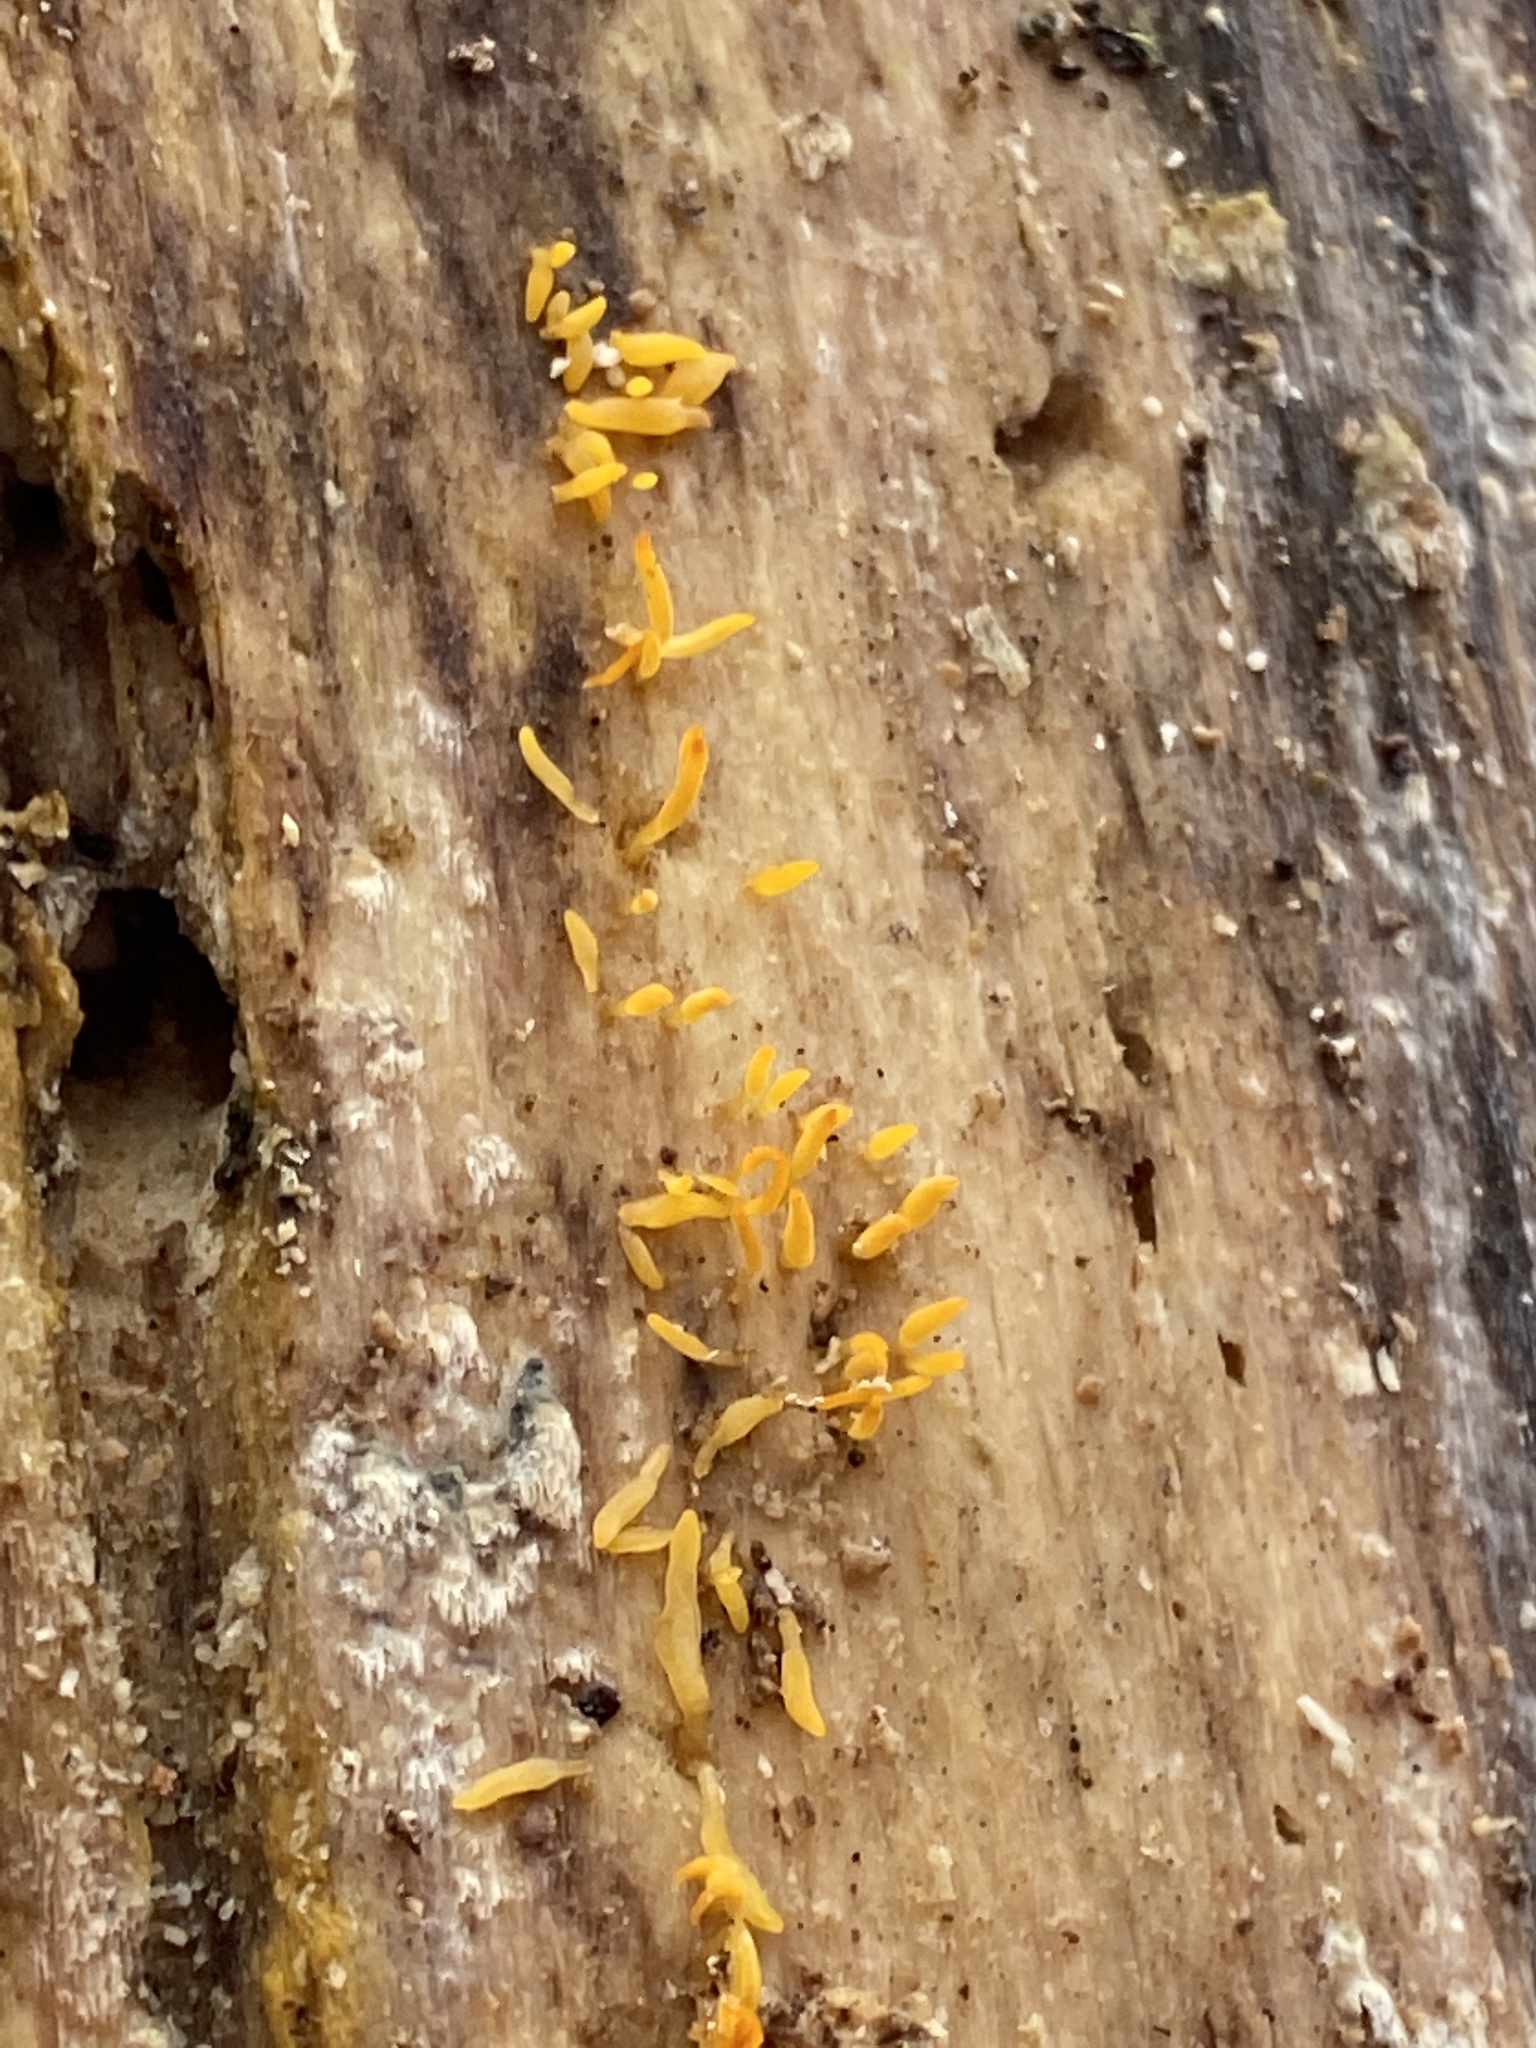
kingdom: Fungi
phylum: Basidiomycota
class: Dacrymycetes
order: Dacrymycetales
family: Dacrymycetaceae
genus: Calocera
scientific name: Calocera cornea
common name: Small stagshorn
